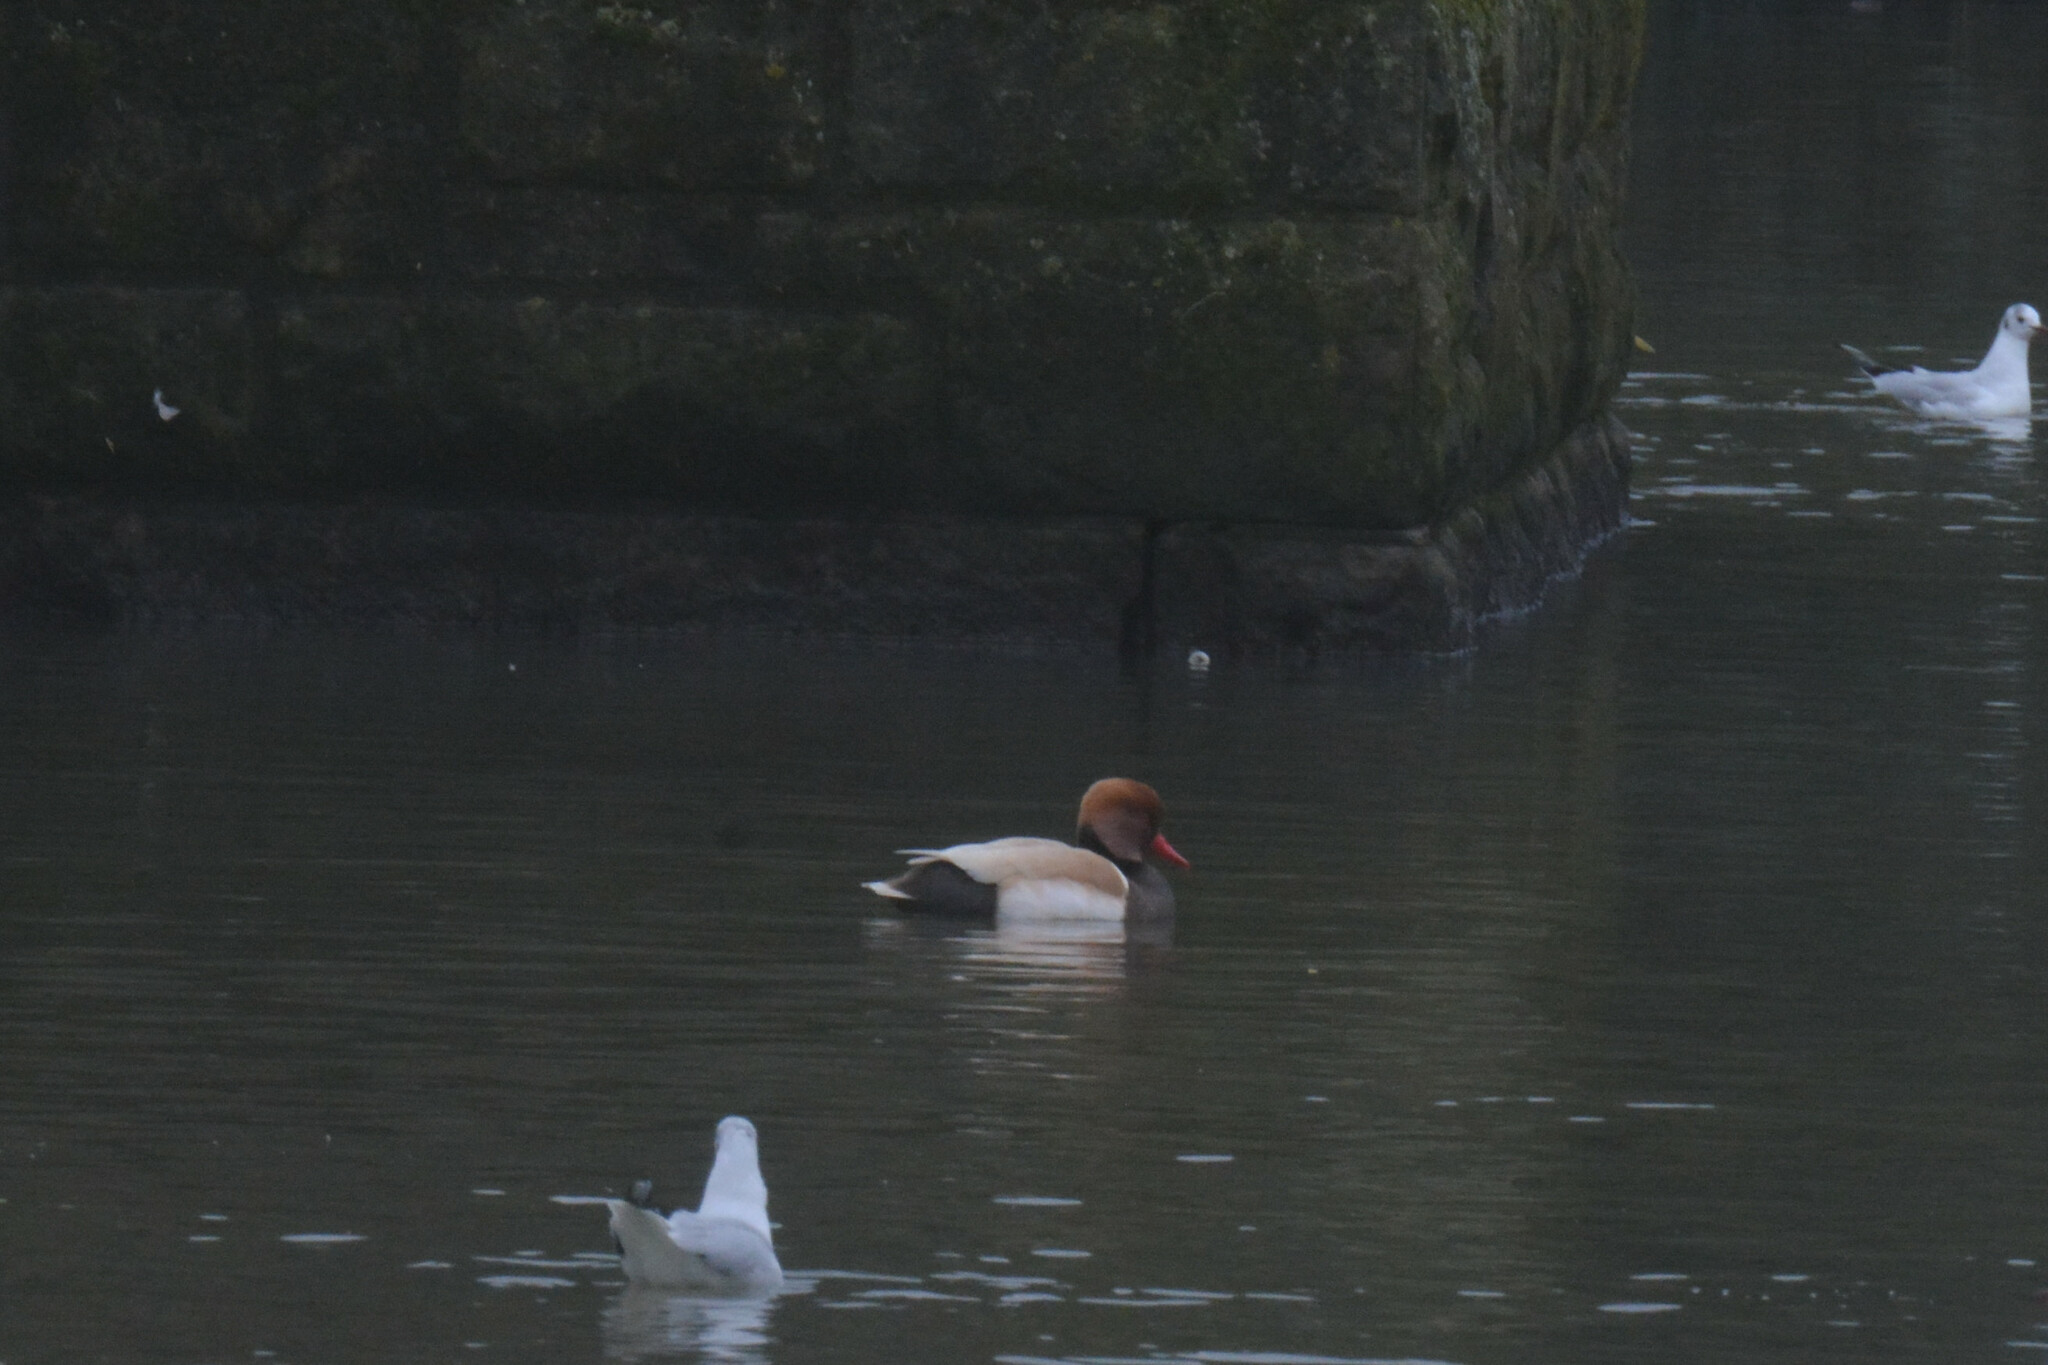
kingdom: Animalia
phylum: Chordata
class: Aves
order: Anseriformes
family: Anatidae
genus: Netta
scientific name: Netta rufina
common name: Red-crested pochard
